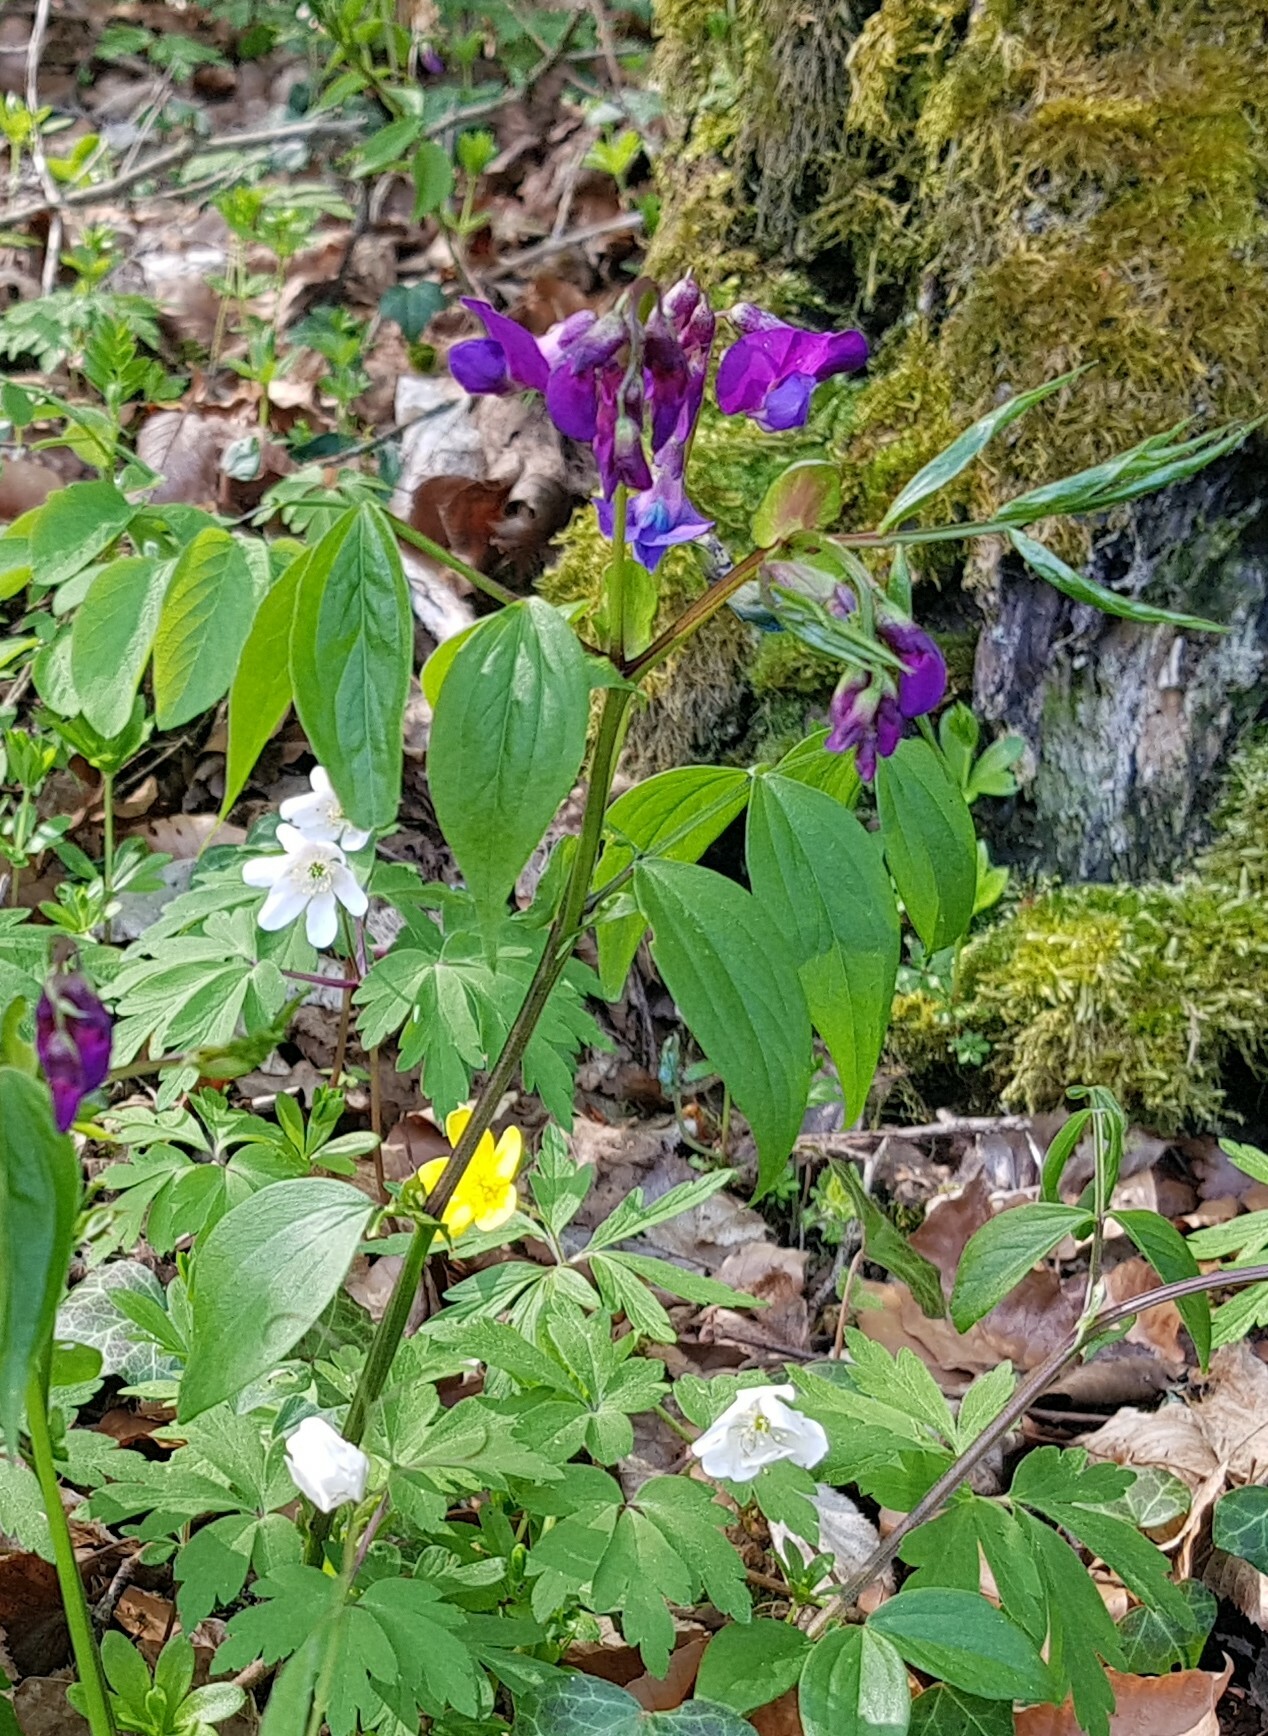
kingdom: Plantae
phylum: Tracheophyta
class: Magnoliopsida
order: Fabales
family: Fabaceae
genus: Lathyrus
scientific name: Lathyrus vernus
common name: Spring pea
